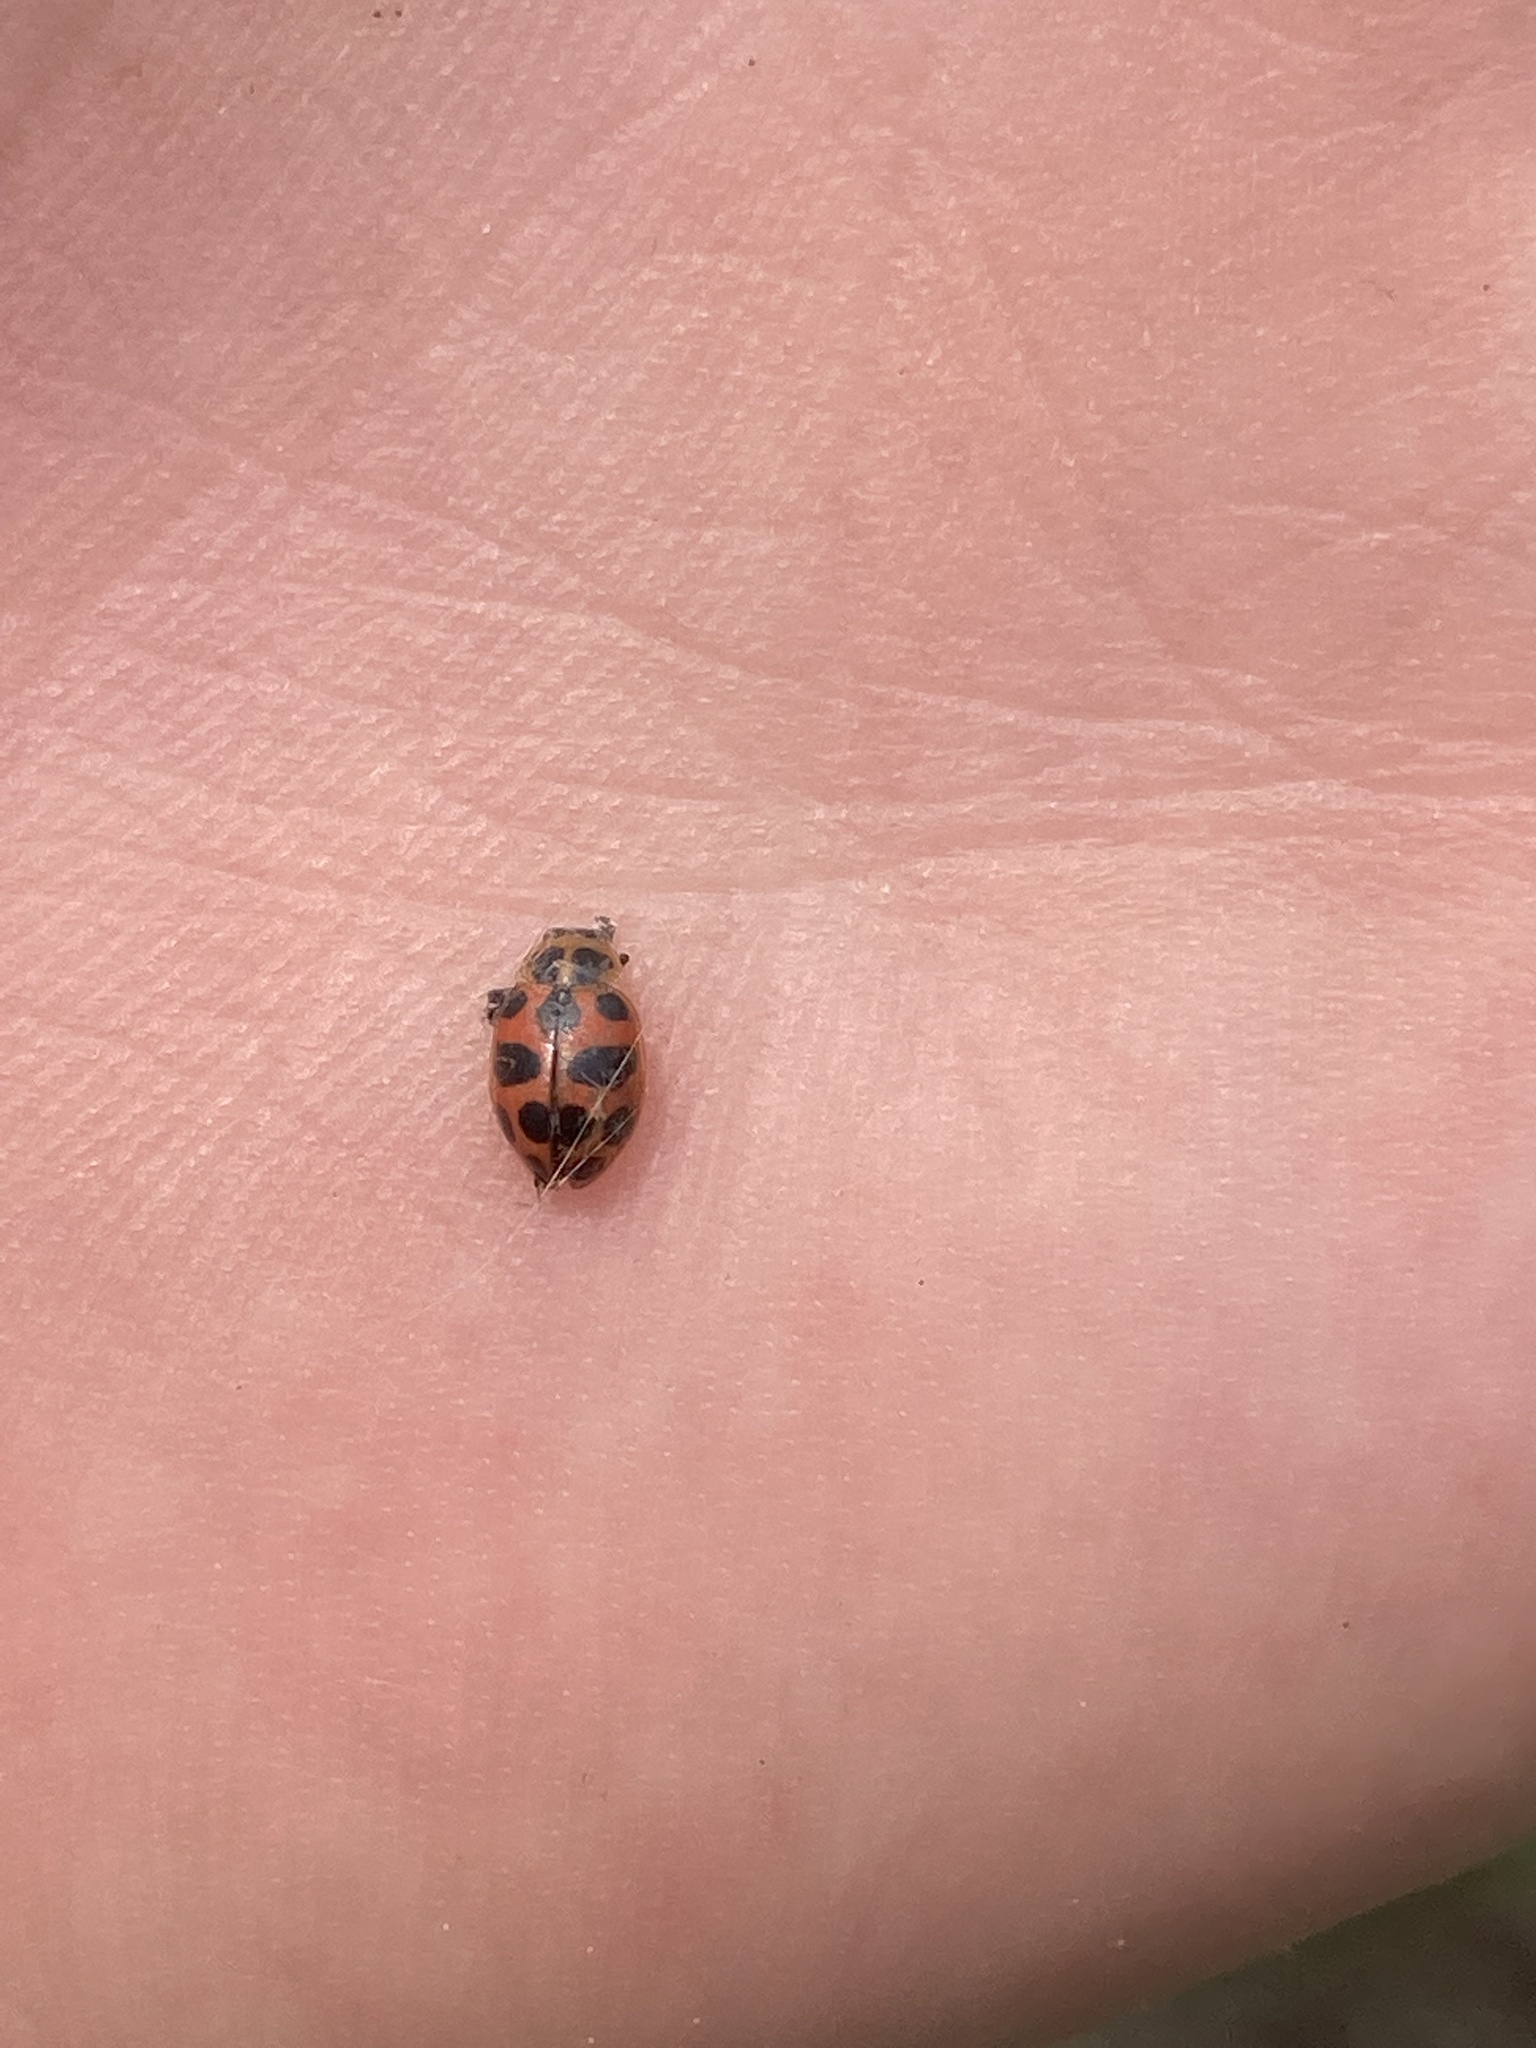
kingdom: Animalia
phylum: Arthropoda
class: Insecta
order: Coleoptera
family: Coccinellidae
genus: Coleomegilla
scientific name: Coleomegilla maculata
